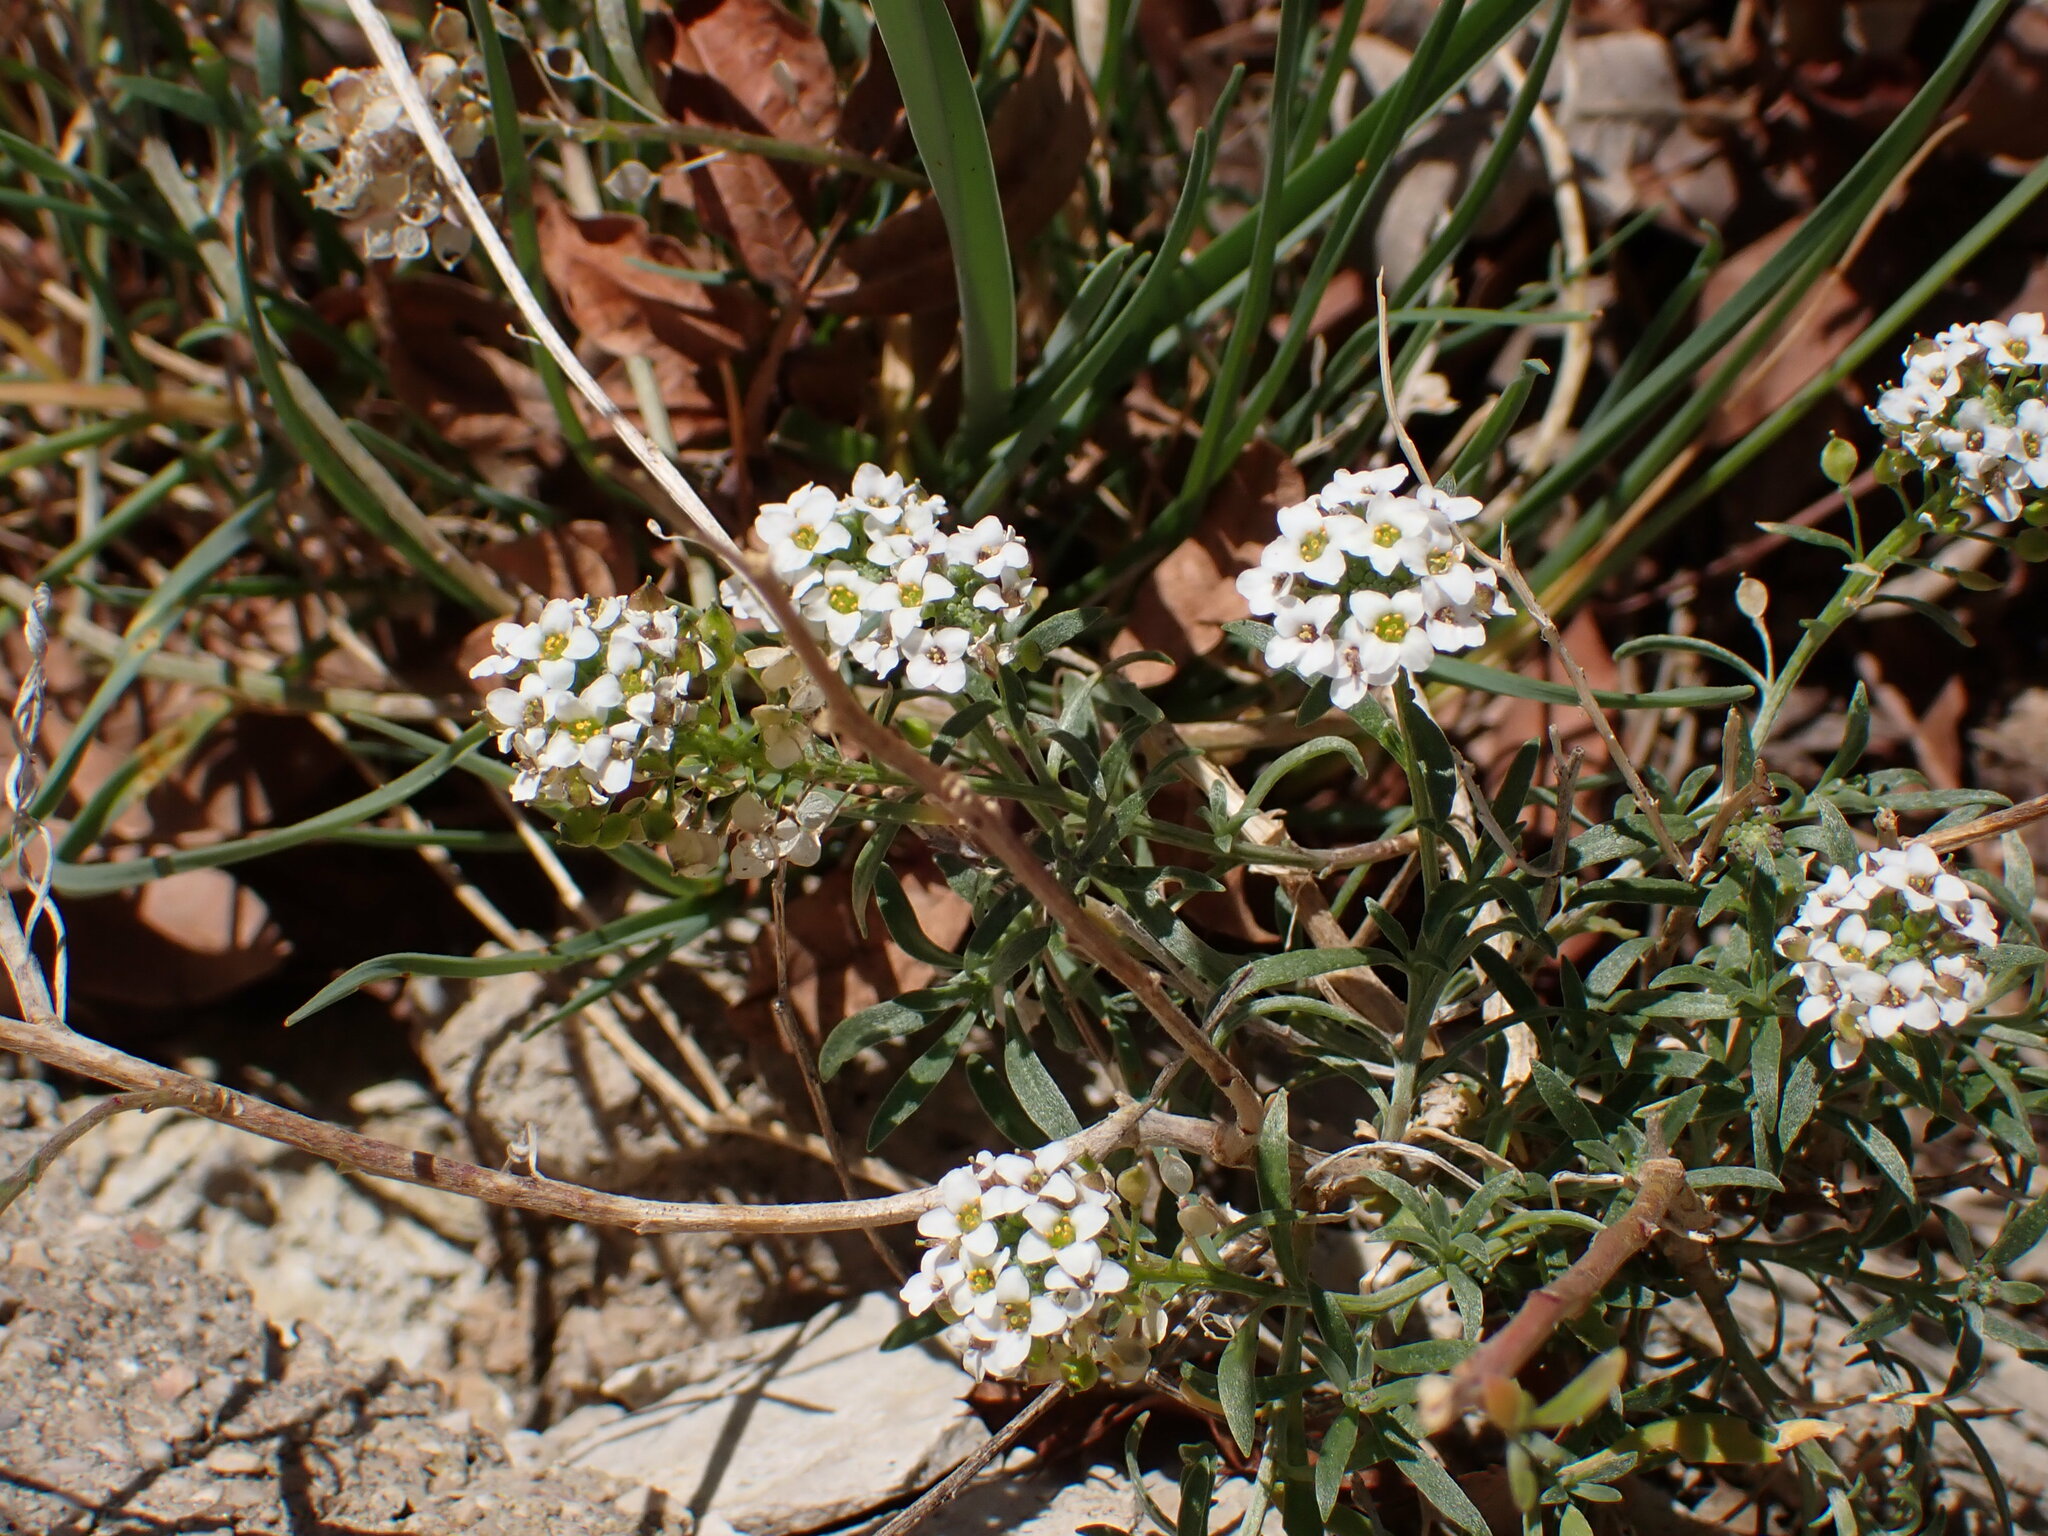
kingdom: Plantae
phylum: Tracheophyta
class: Magnoliopsida
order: Brassicales
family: Brassicaceae
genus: Lobularia
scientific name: Lobularia maritima
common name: Sweet alison
